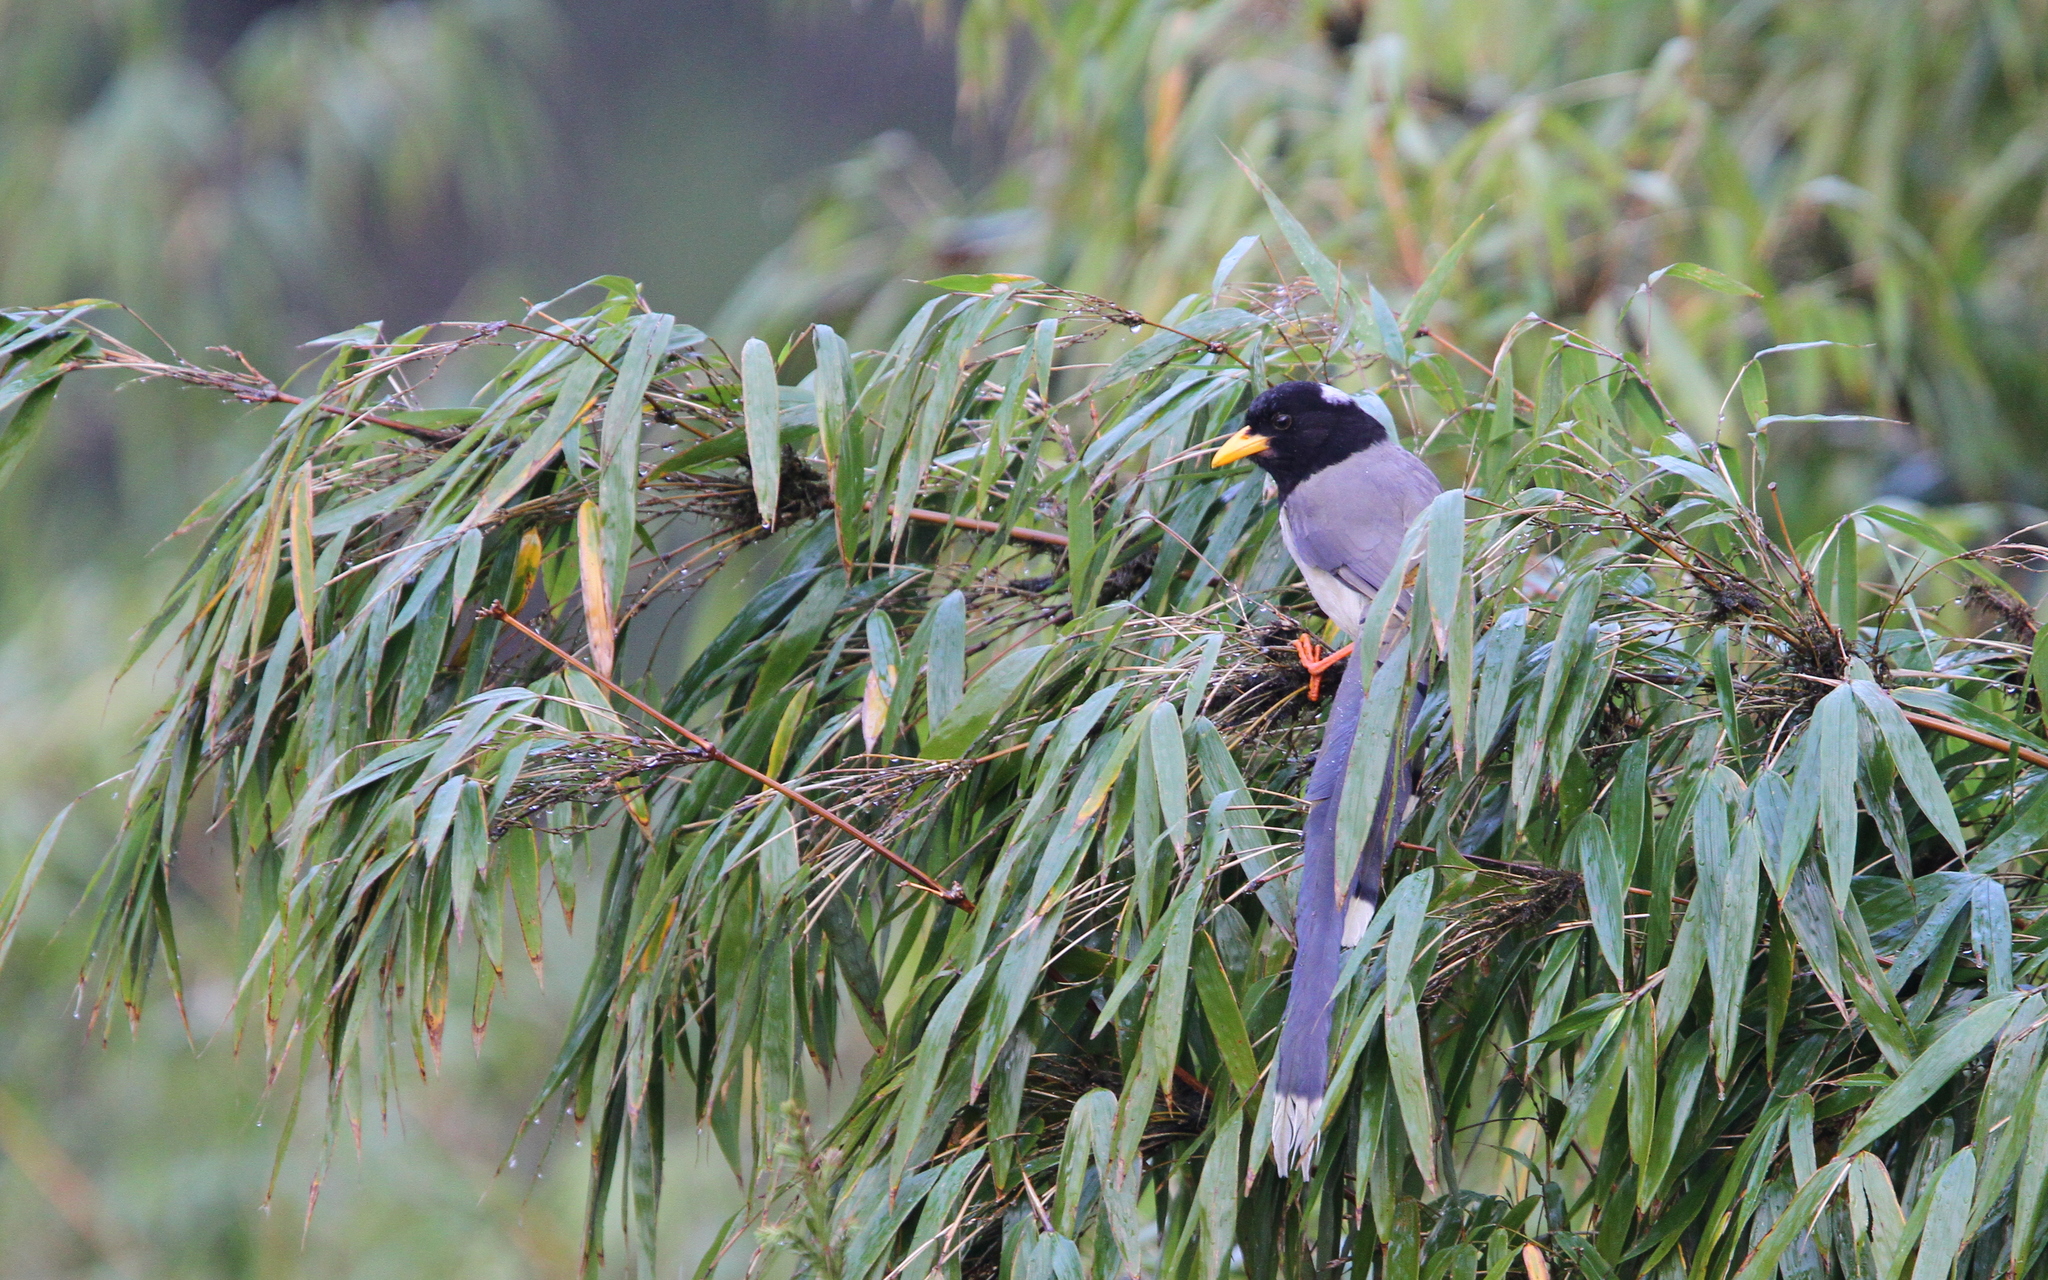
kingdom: Animalia
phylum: Chordata
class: Aves
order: Passeriformes
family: Corvidae
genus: Urocissa
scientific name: Urocissa flavirostris
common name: Yellow-billed blue magpie
